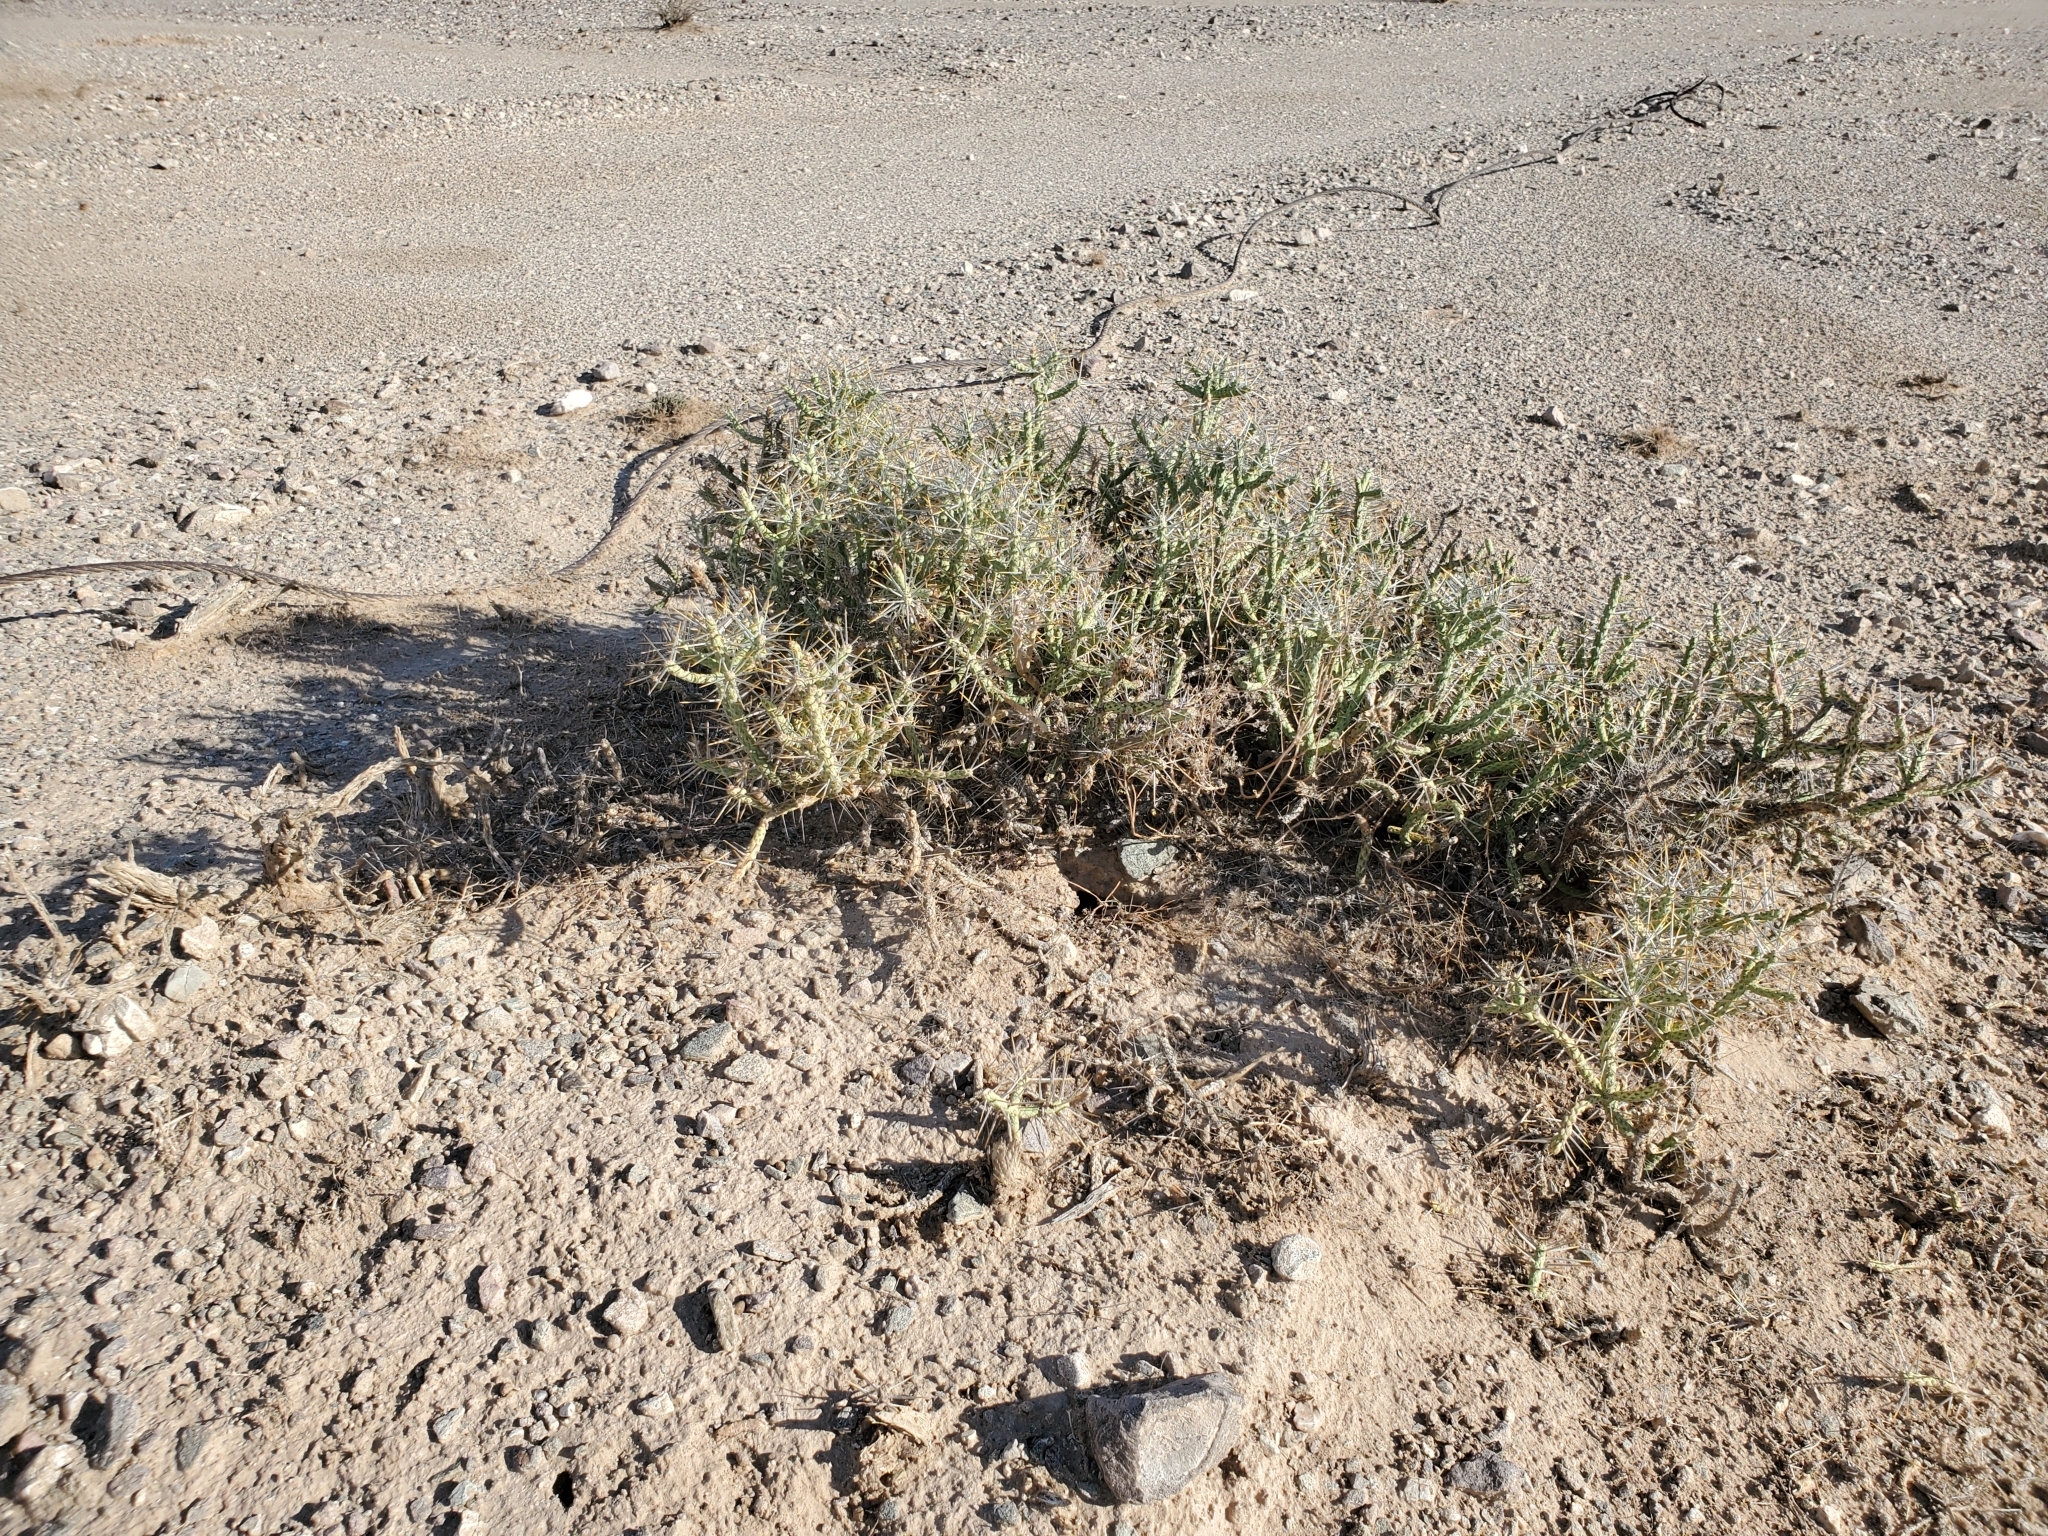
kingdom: Plantae
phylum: Tracheophyta
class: Magnoliopsida
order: Caryophyllales
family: Cactaceae
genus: Cylindropuntia
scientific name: Cylindropuntia ramosissima
